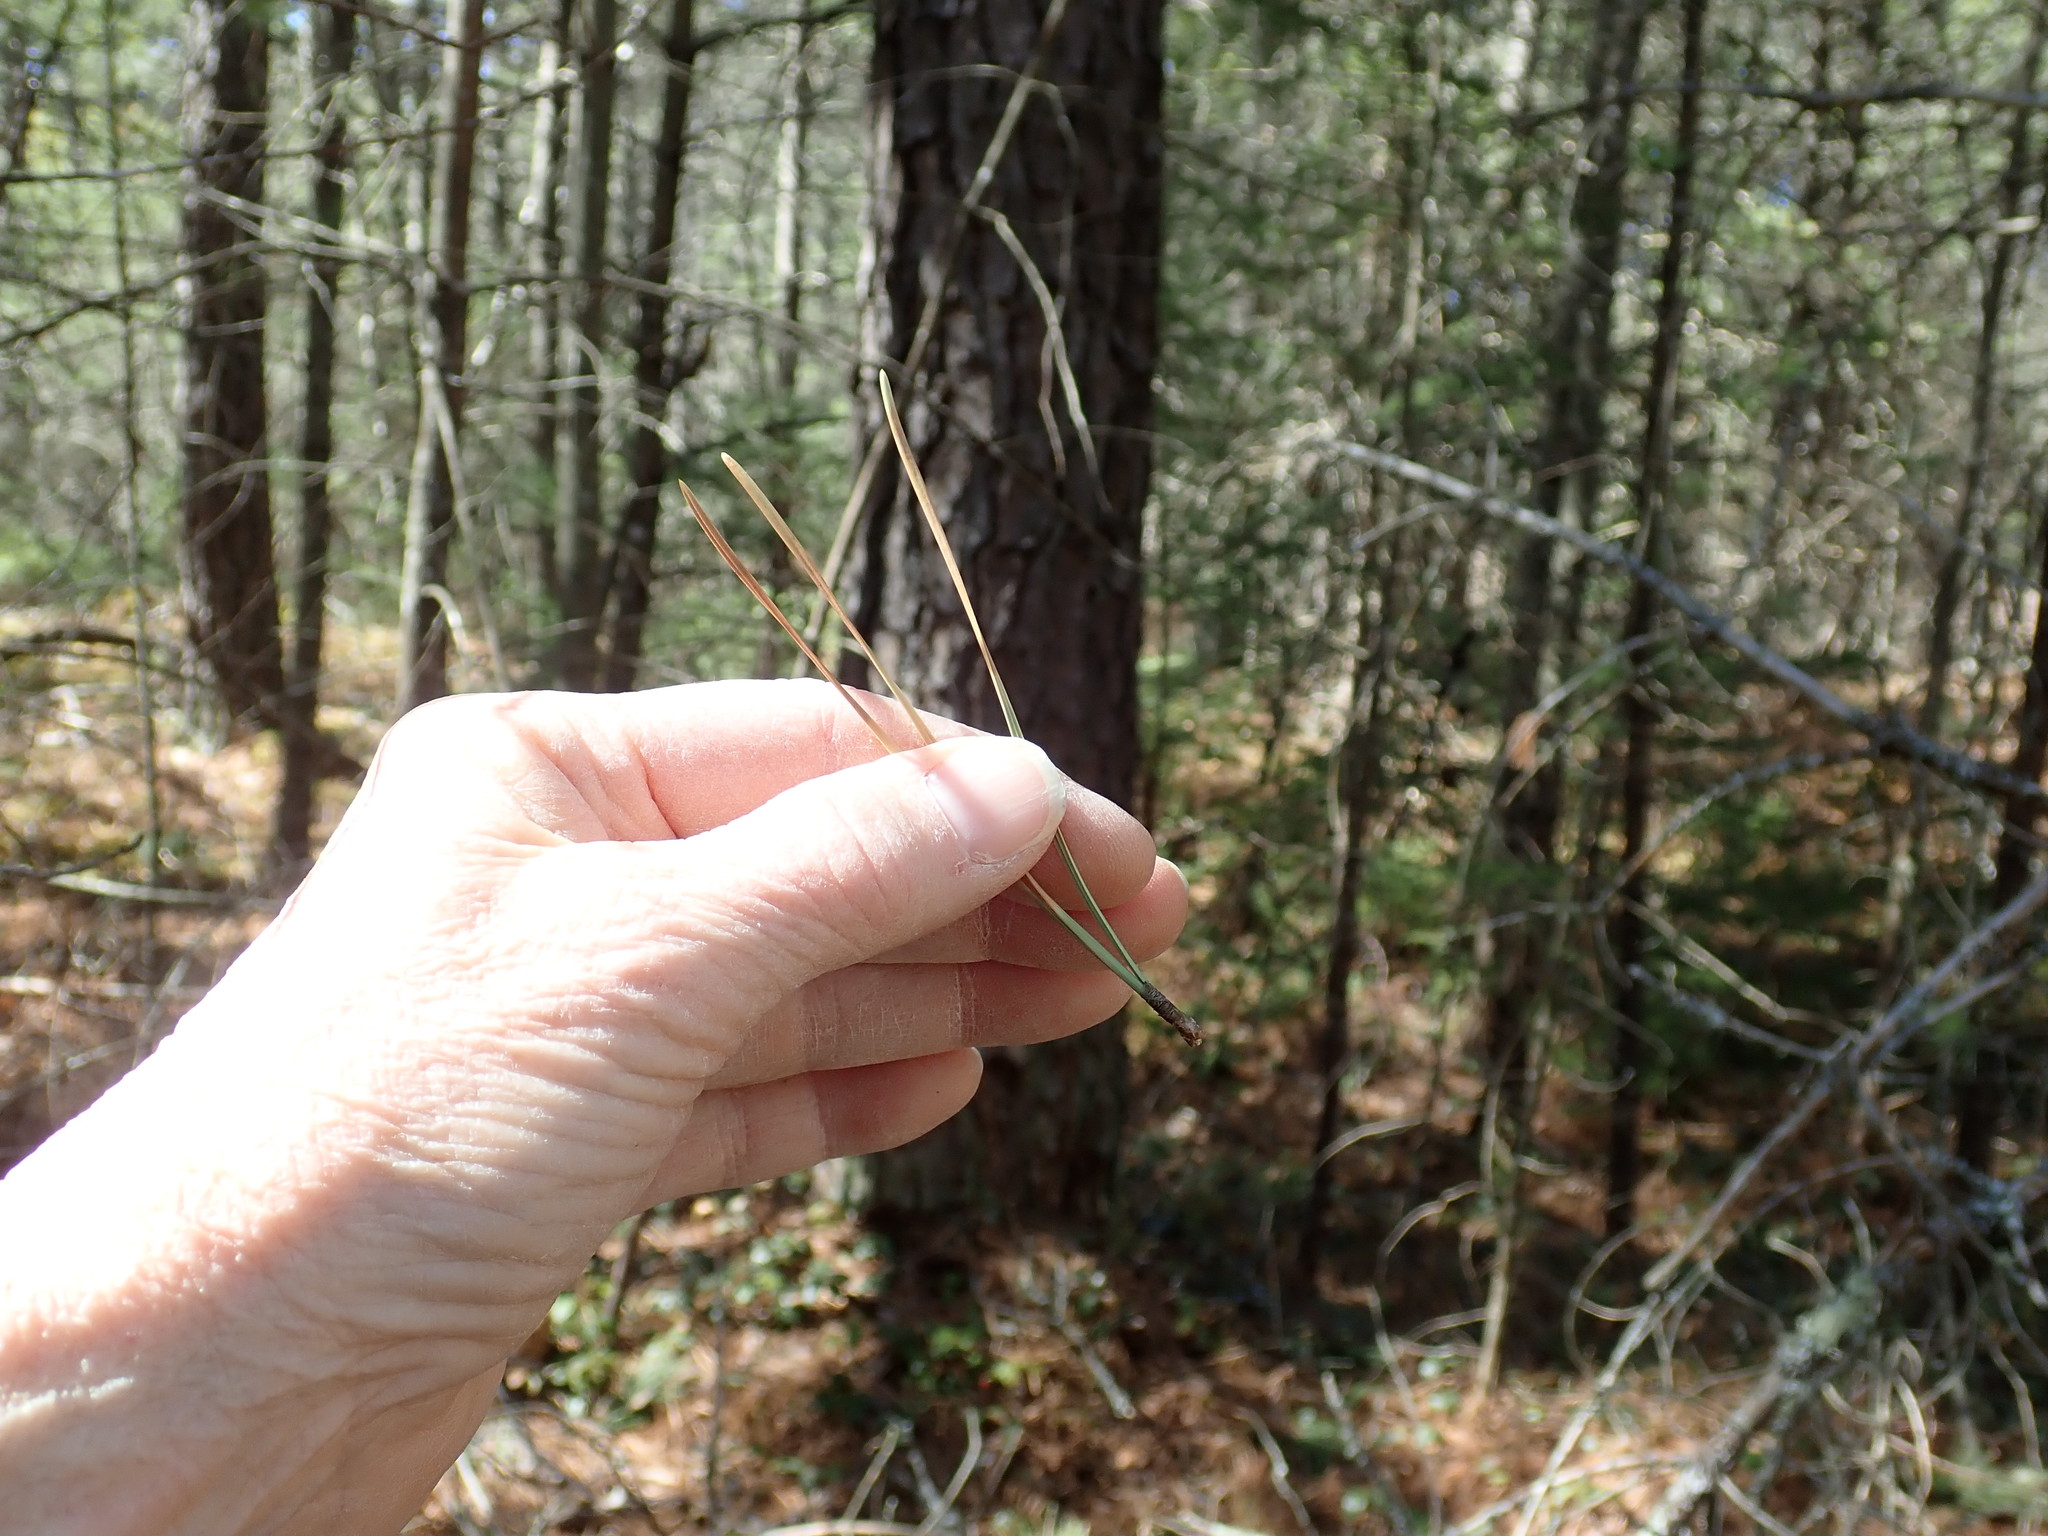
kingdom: Plantae
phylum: Tracheophyta
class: Pinopsida
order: Pinales
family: Pinaceae
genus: Pinus
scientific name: Pinus rigida
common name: Pitch pine
